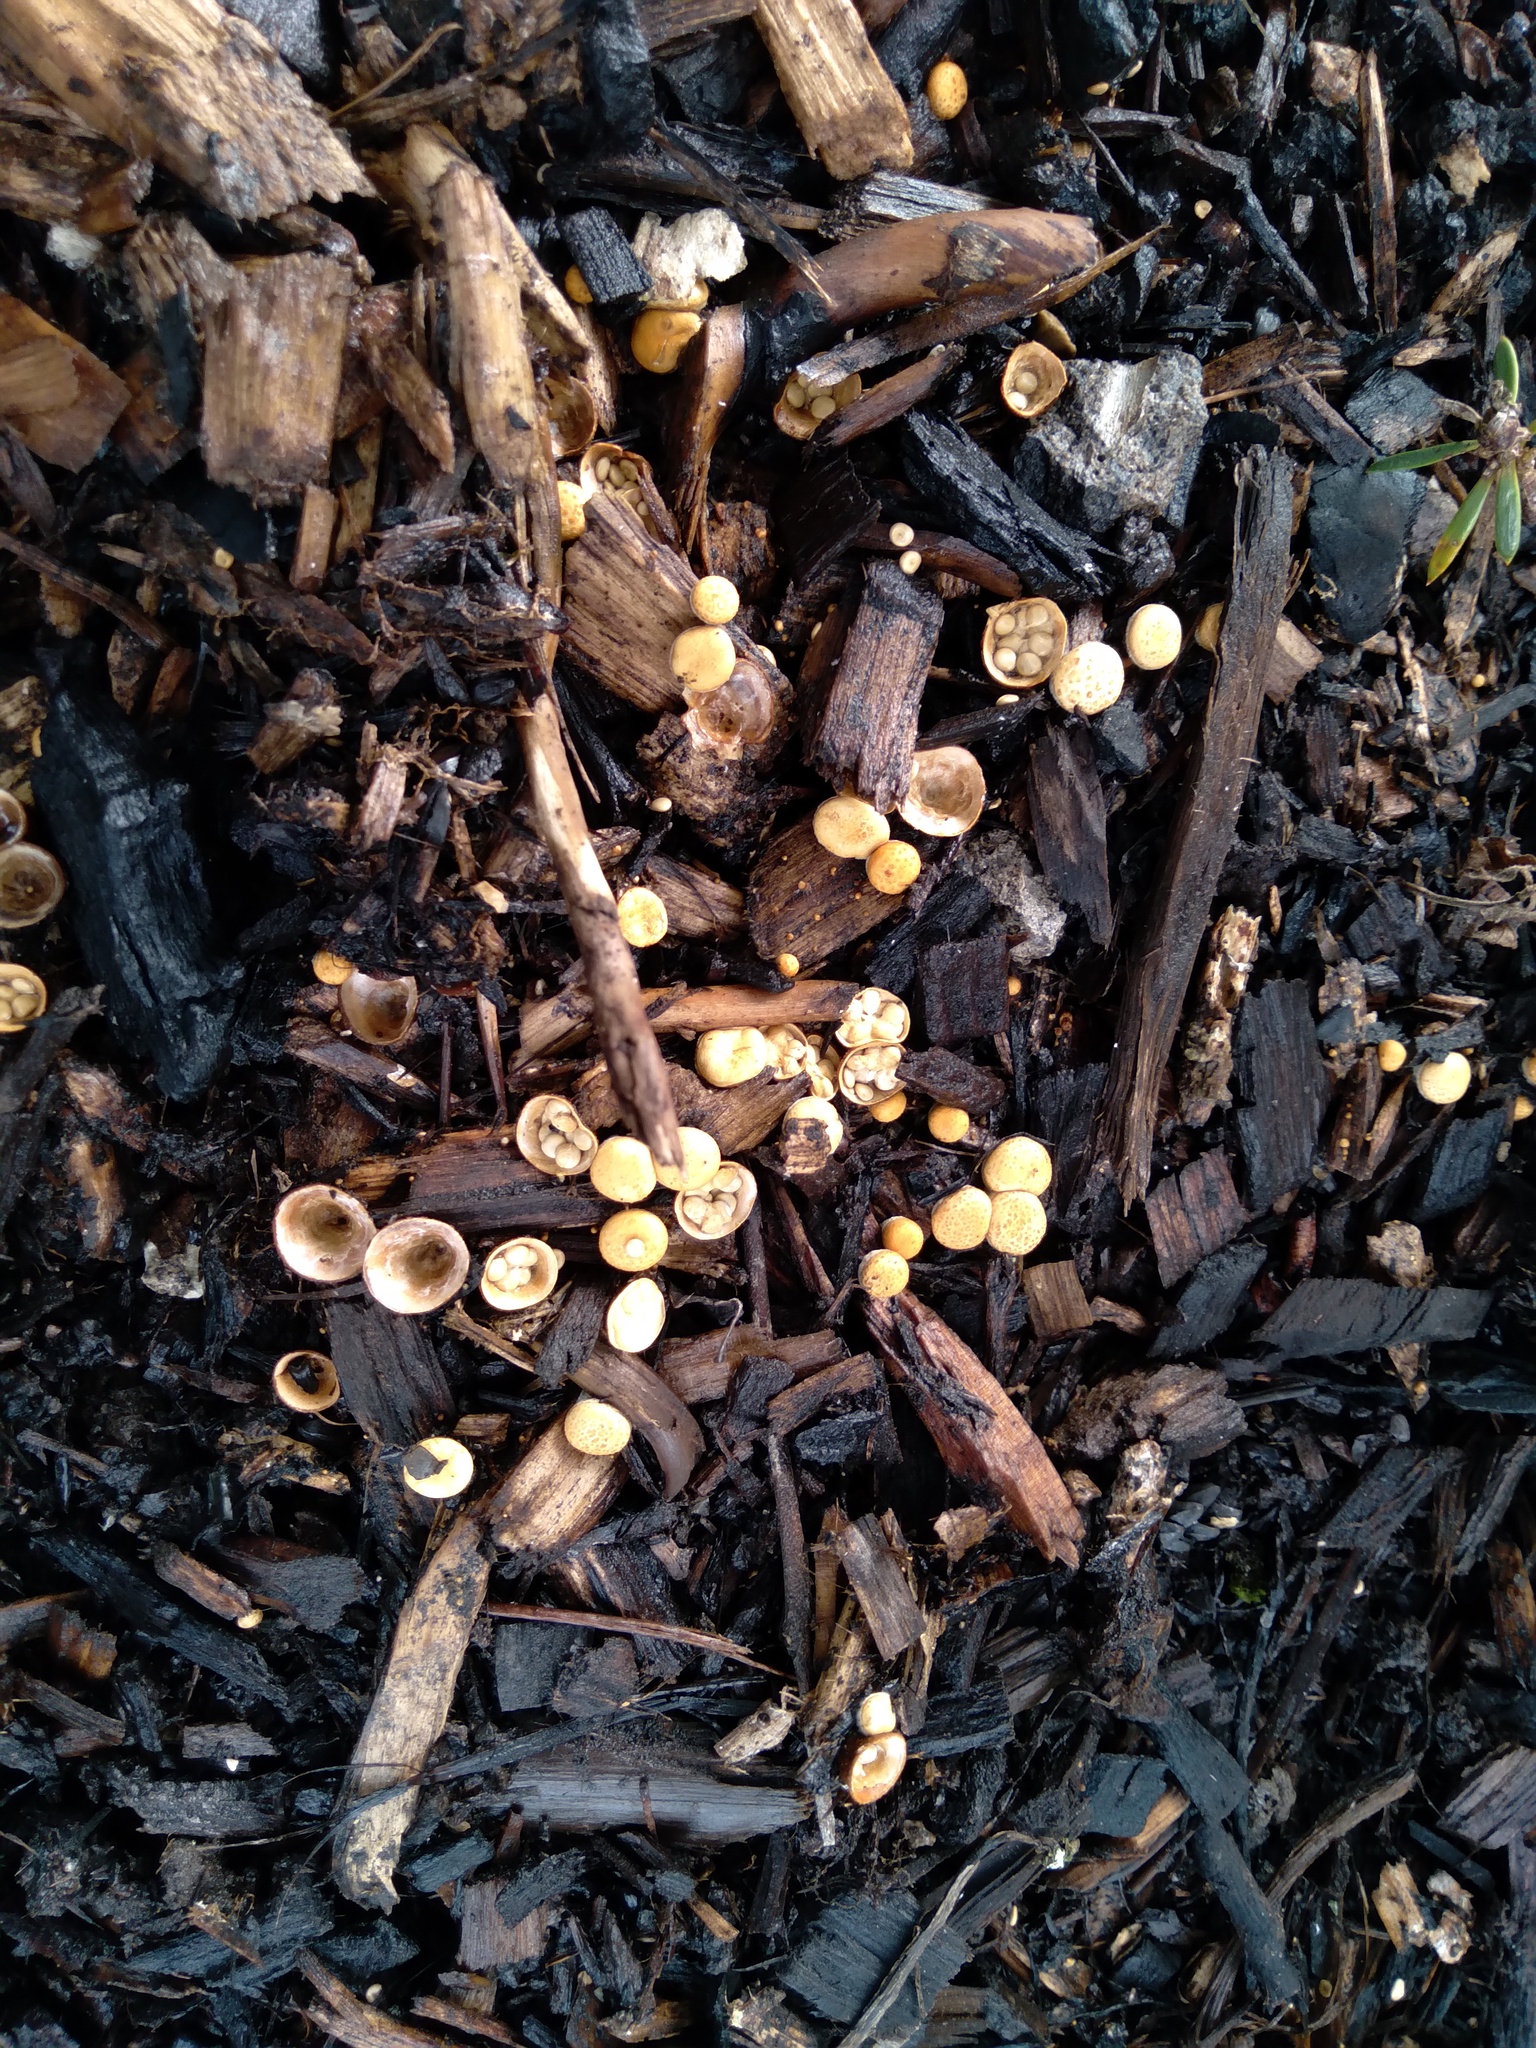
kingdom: Fungi
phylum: Basidiomycota
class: Agaricomycetes
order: Agaricales
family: Nidulariaceae
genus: Crucibulum
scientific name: Crucibulum simile
